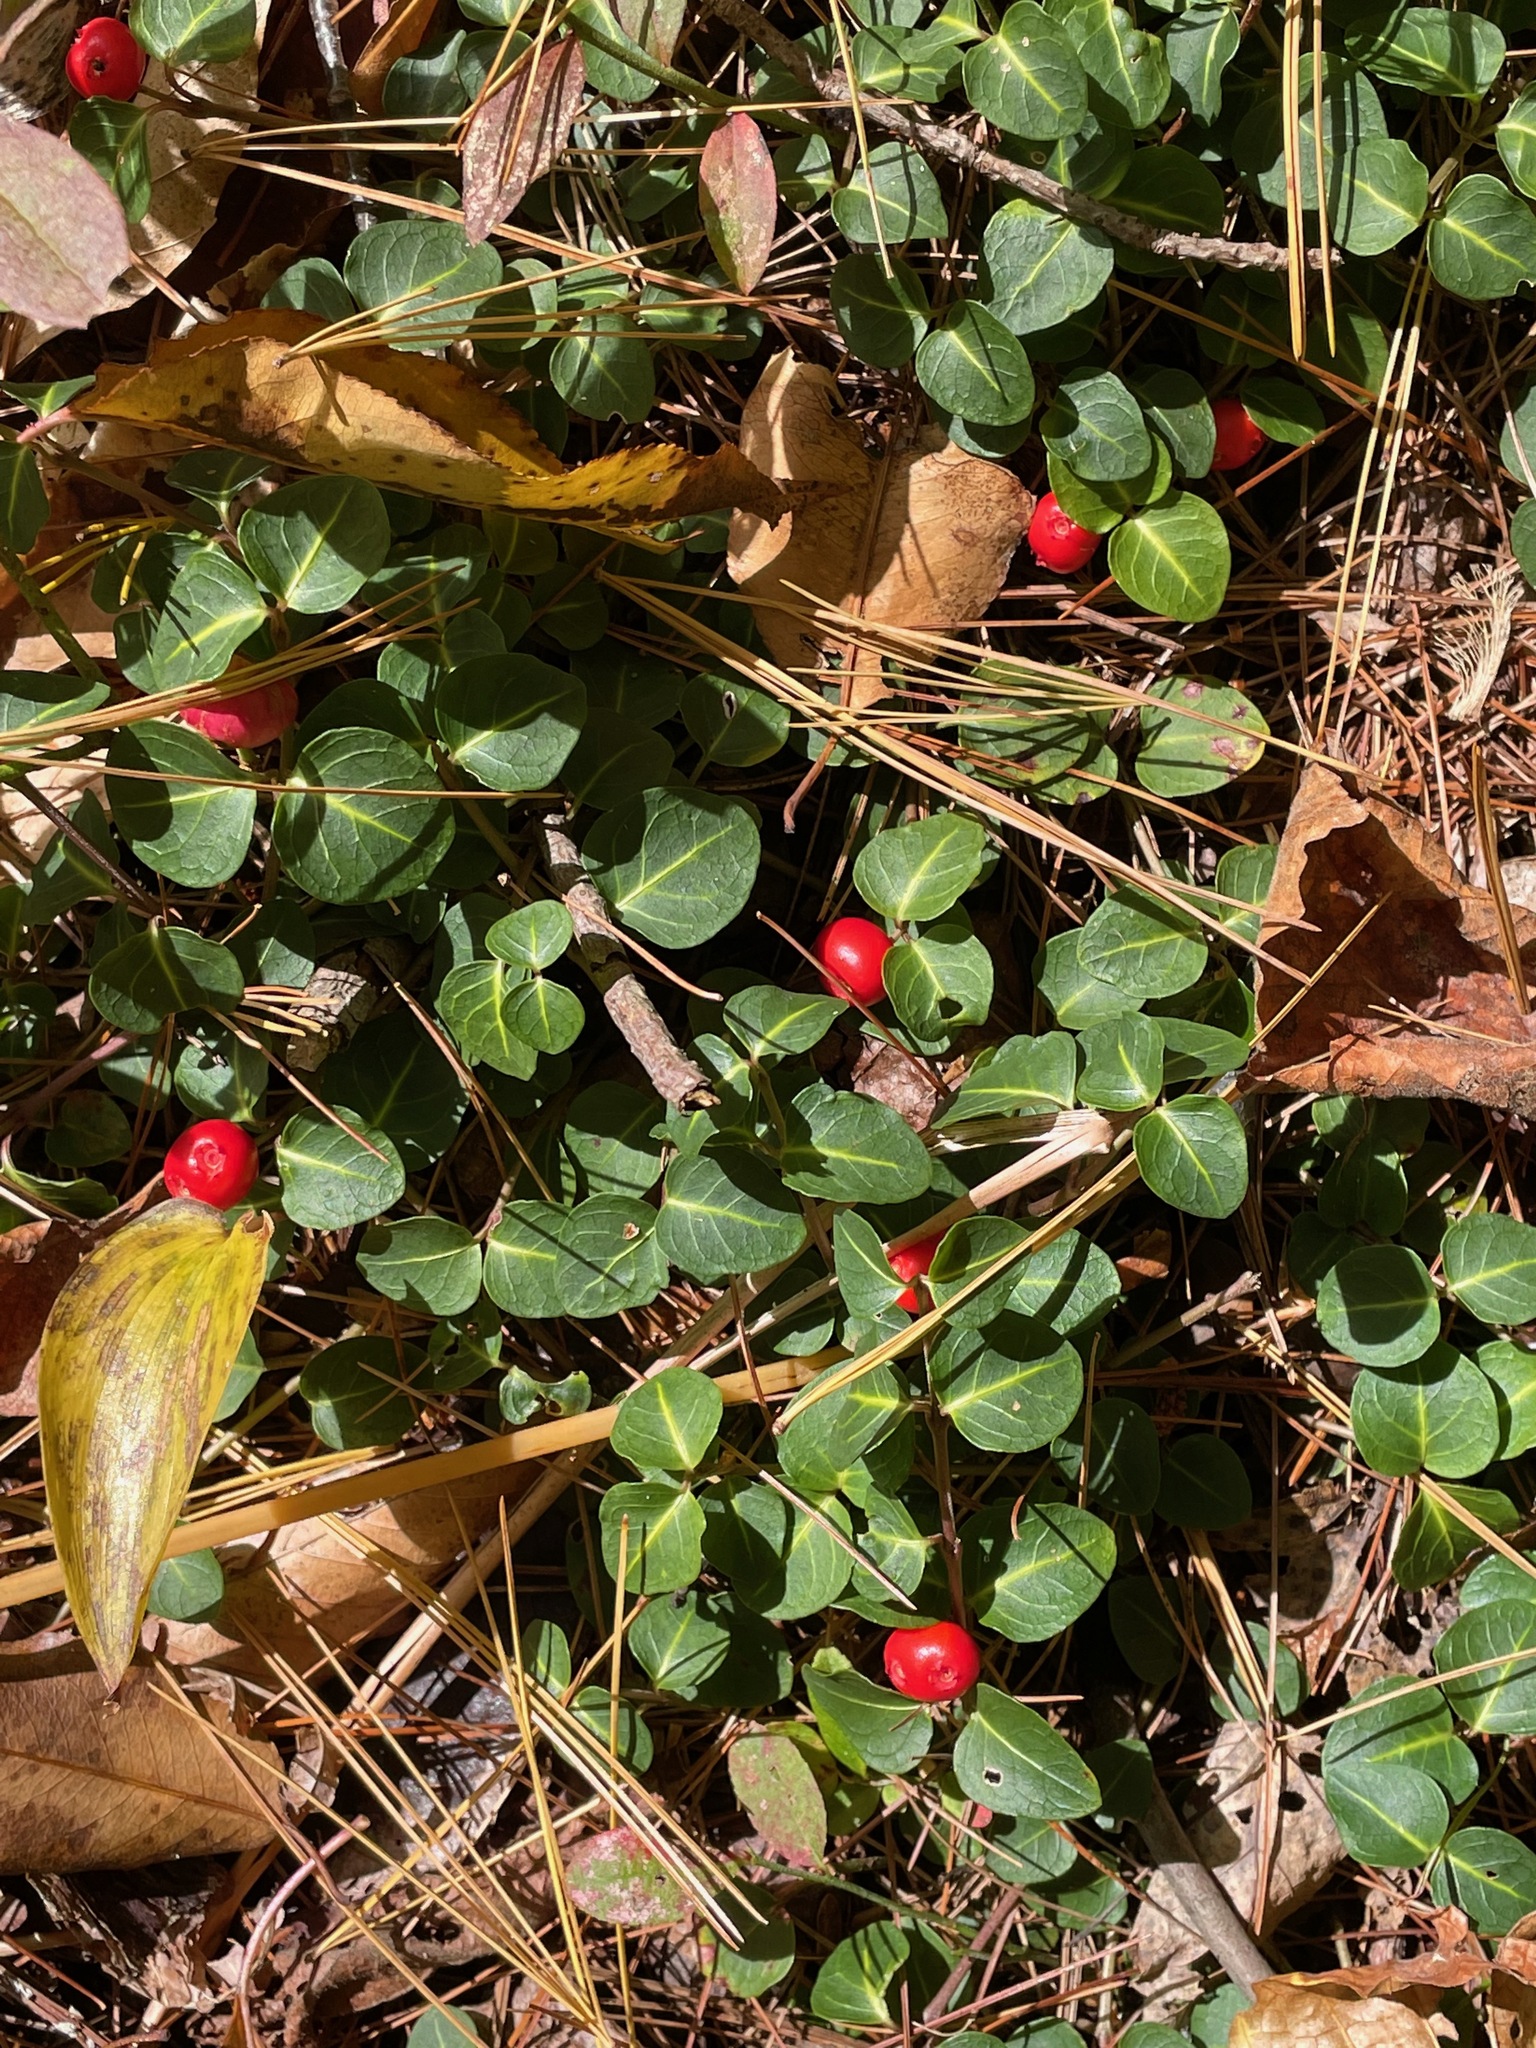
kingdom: Plantae
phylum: Tracheophyta
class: Magnoliopsida
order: Gentianales
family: Rubiaceae
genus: Mitchella
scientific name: Mitchella repens
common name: Partridge-berry
